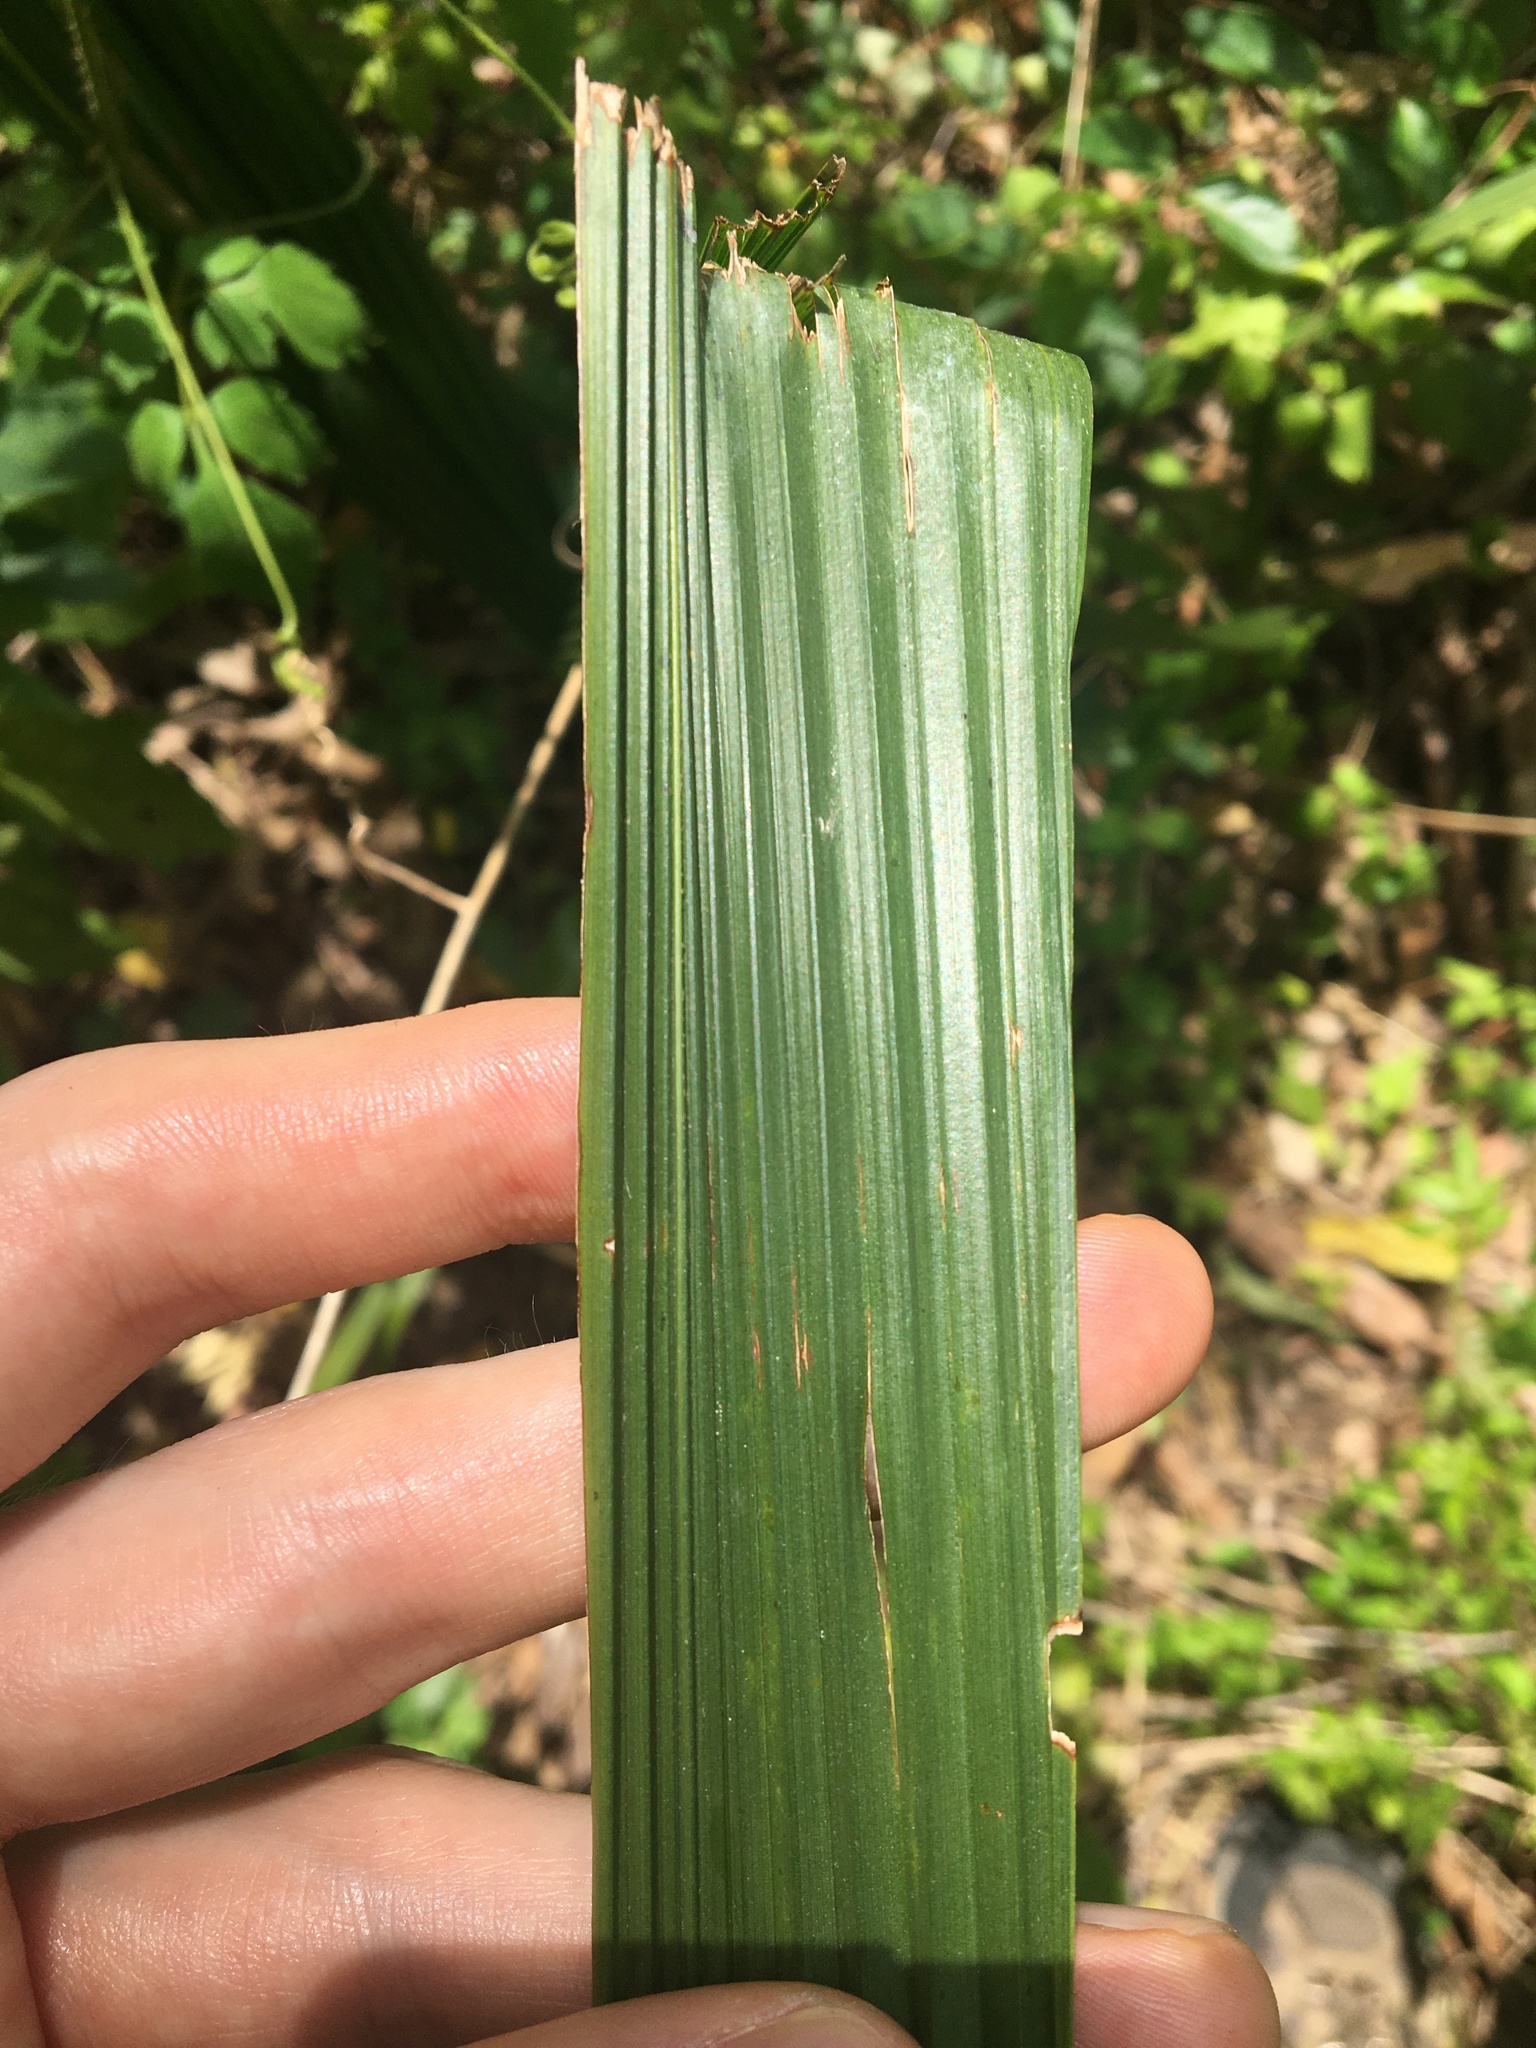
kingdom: Plantae
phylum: Tracheophyta
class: Liliopsida
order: Arecales
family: Arecaceae
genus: Syagrus
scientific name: Syagrus romanzoffiana
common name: Queen palm
